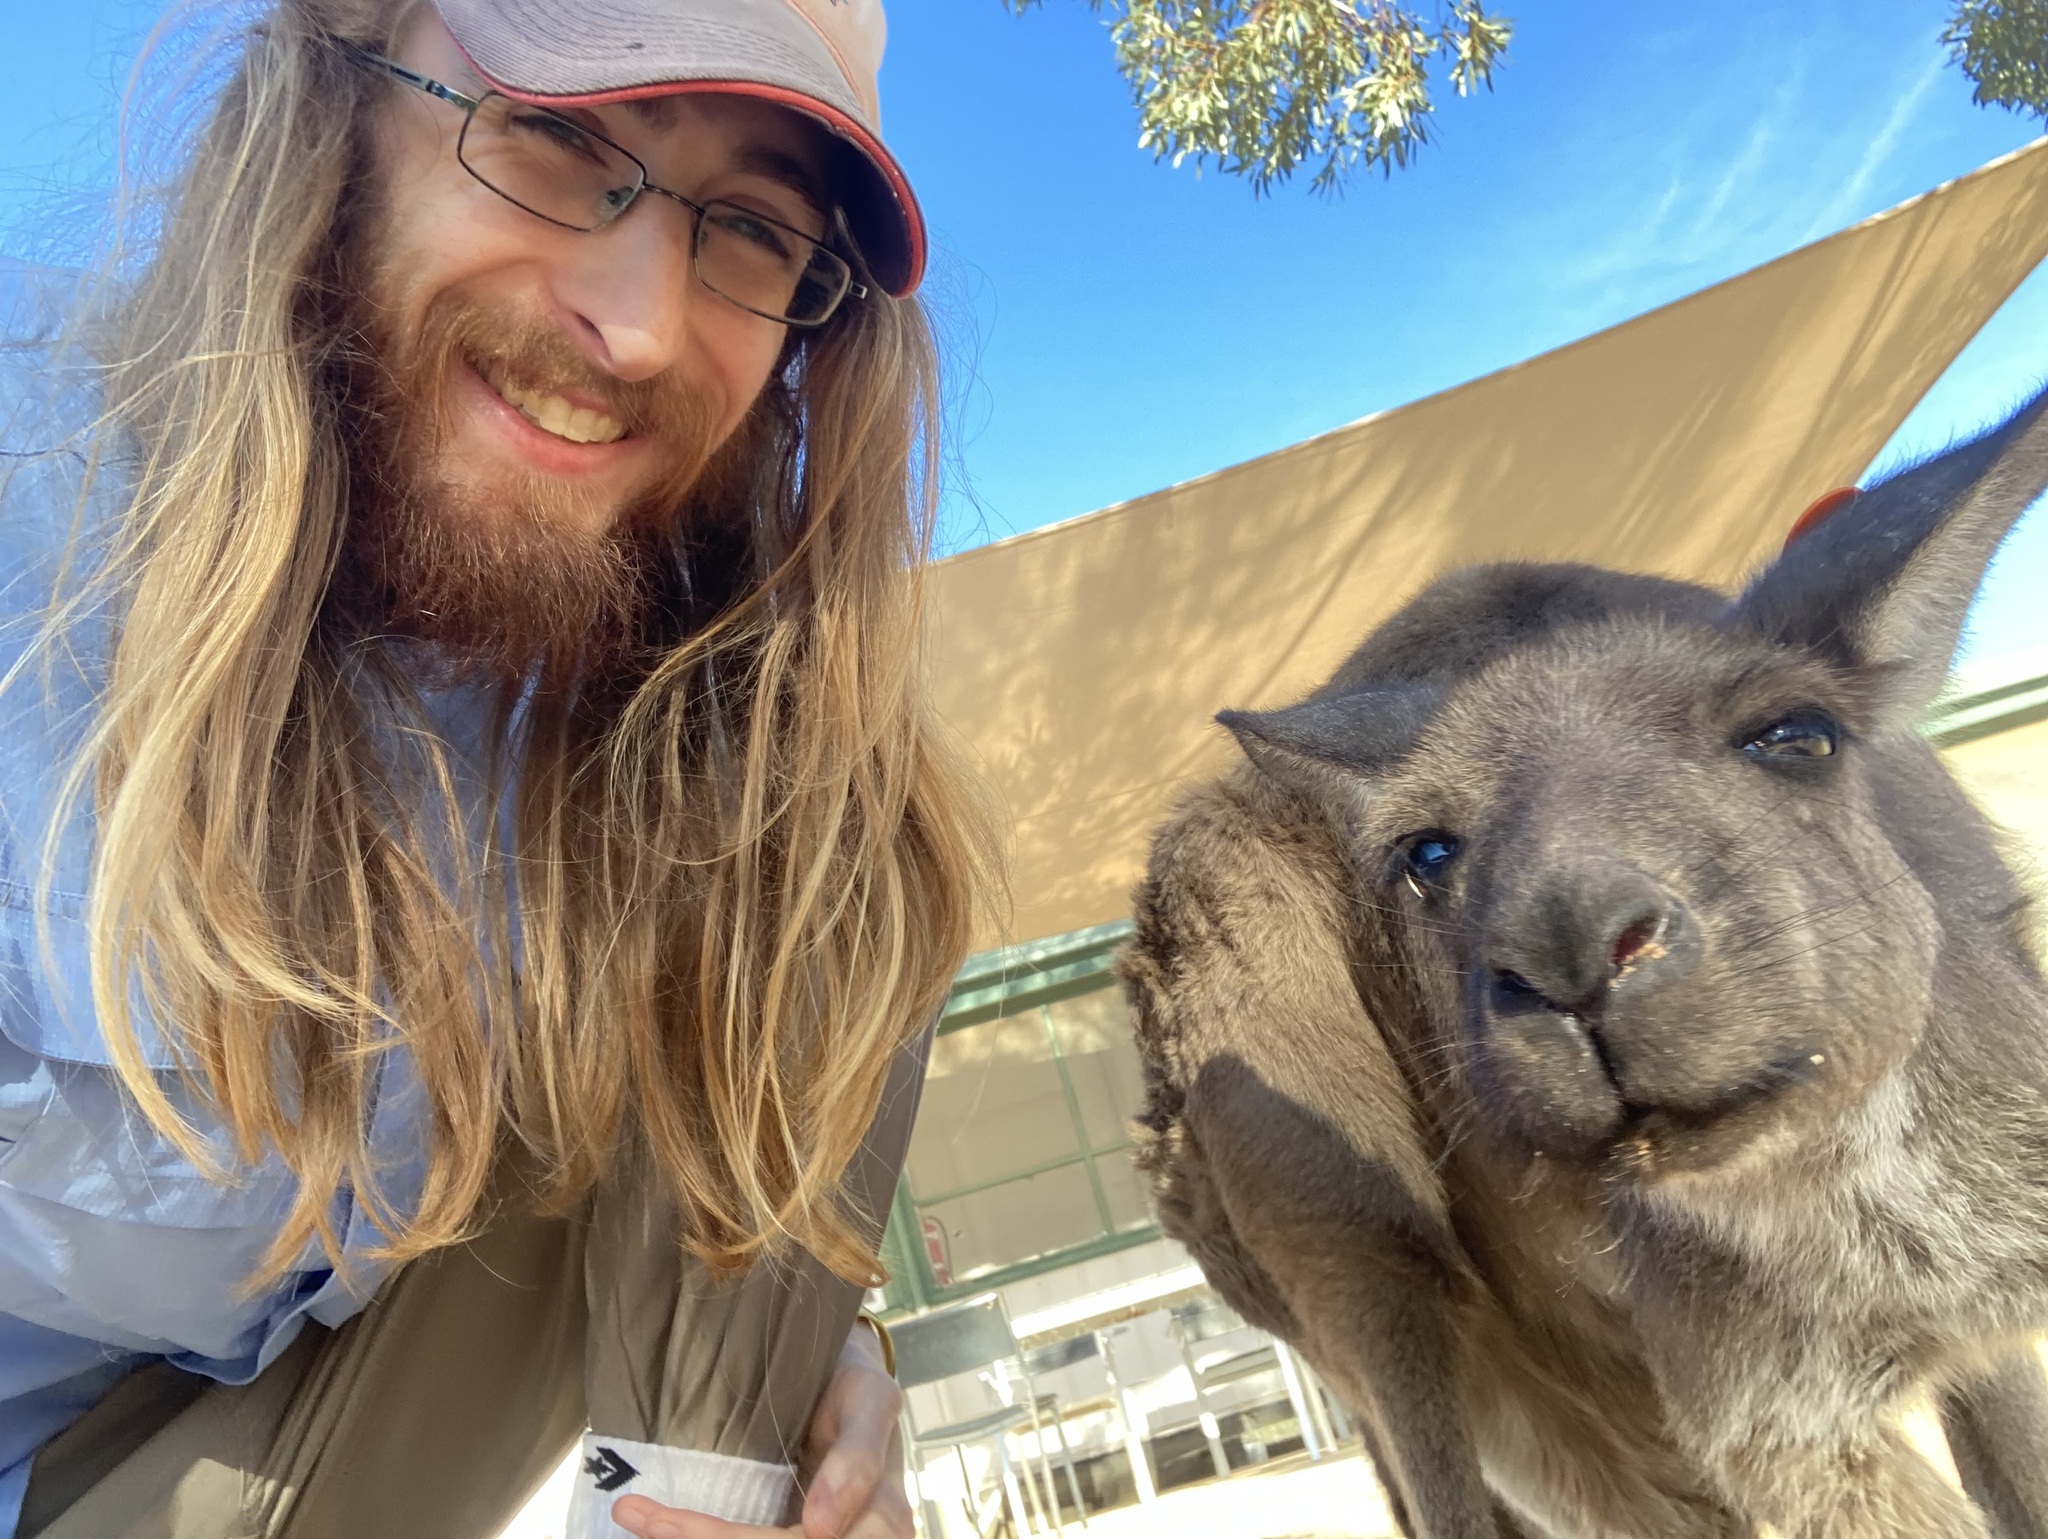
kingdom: Animalia
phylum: Chordata
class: Mammalia
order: Diprotodontia
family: Macropodidae
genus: Macropus
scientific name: Macropus fuliginosus
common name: Western grey kangaroo
